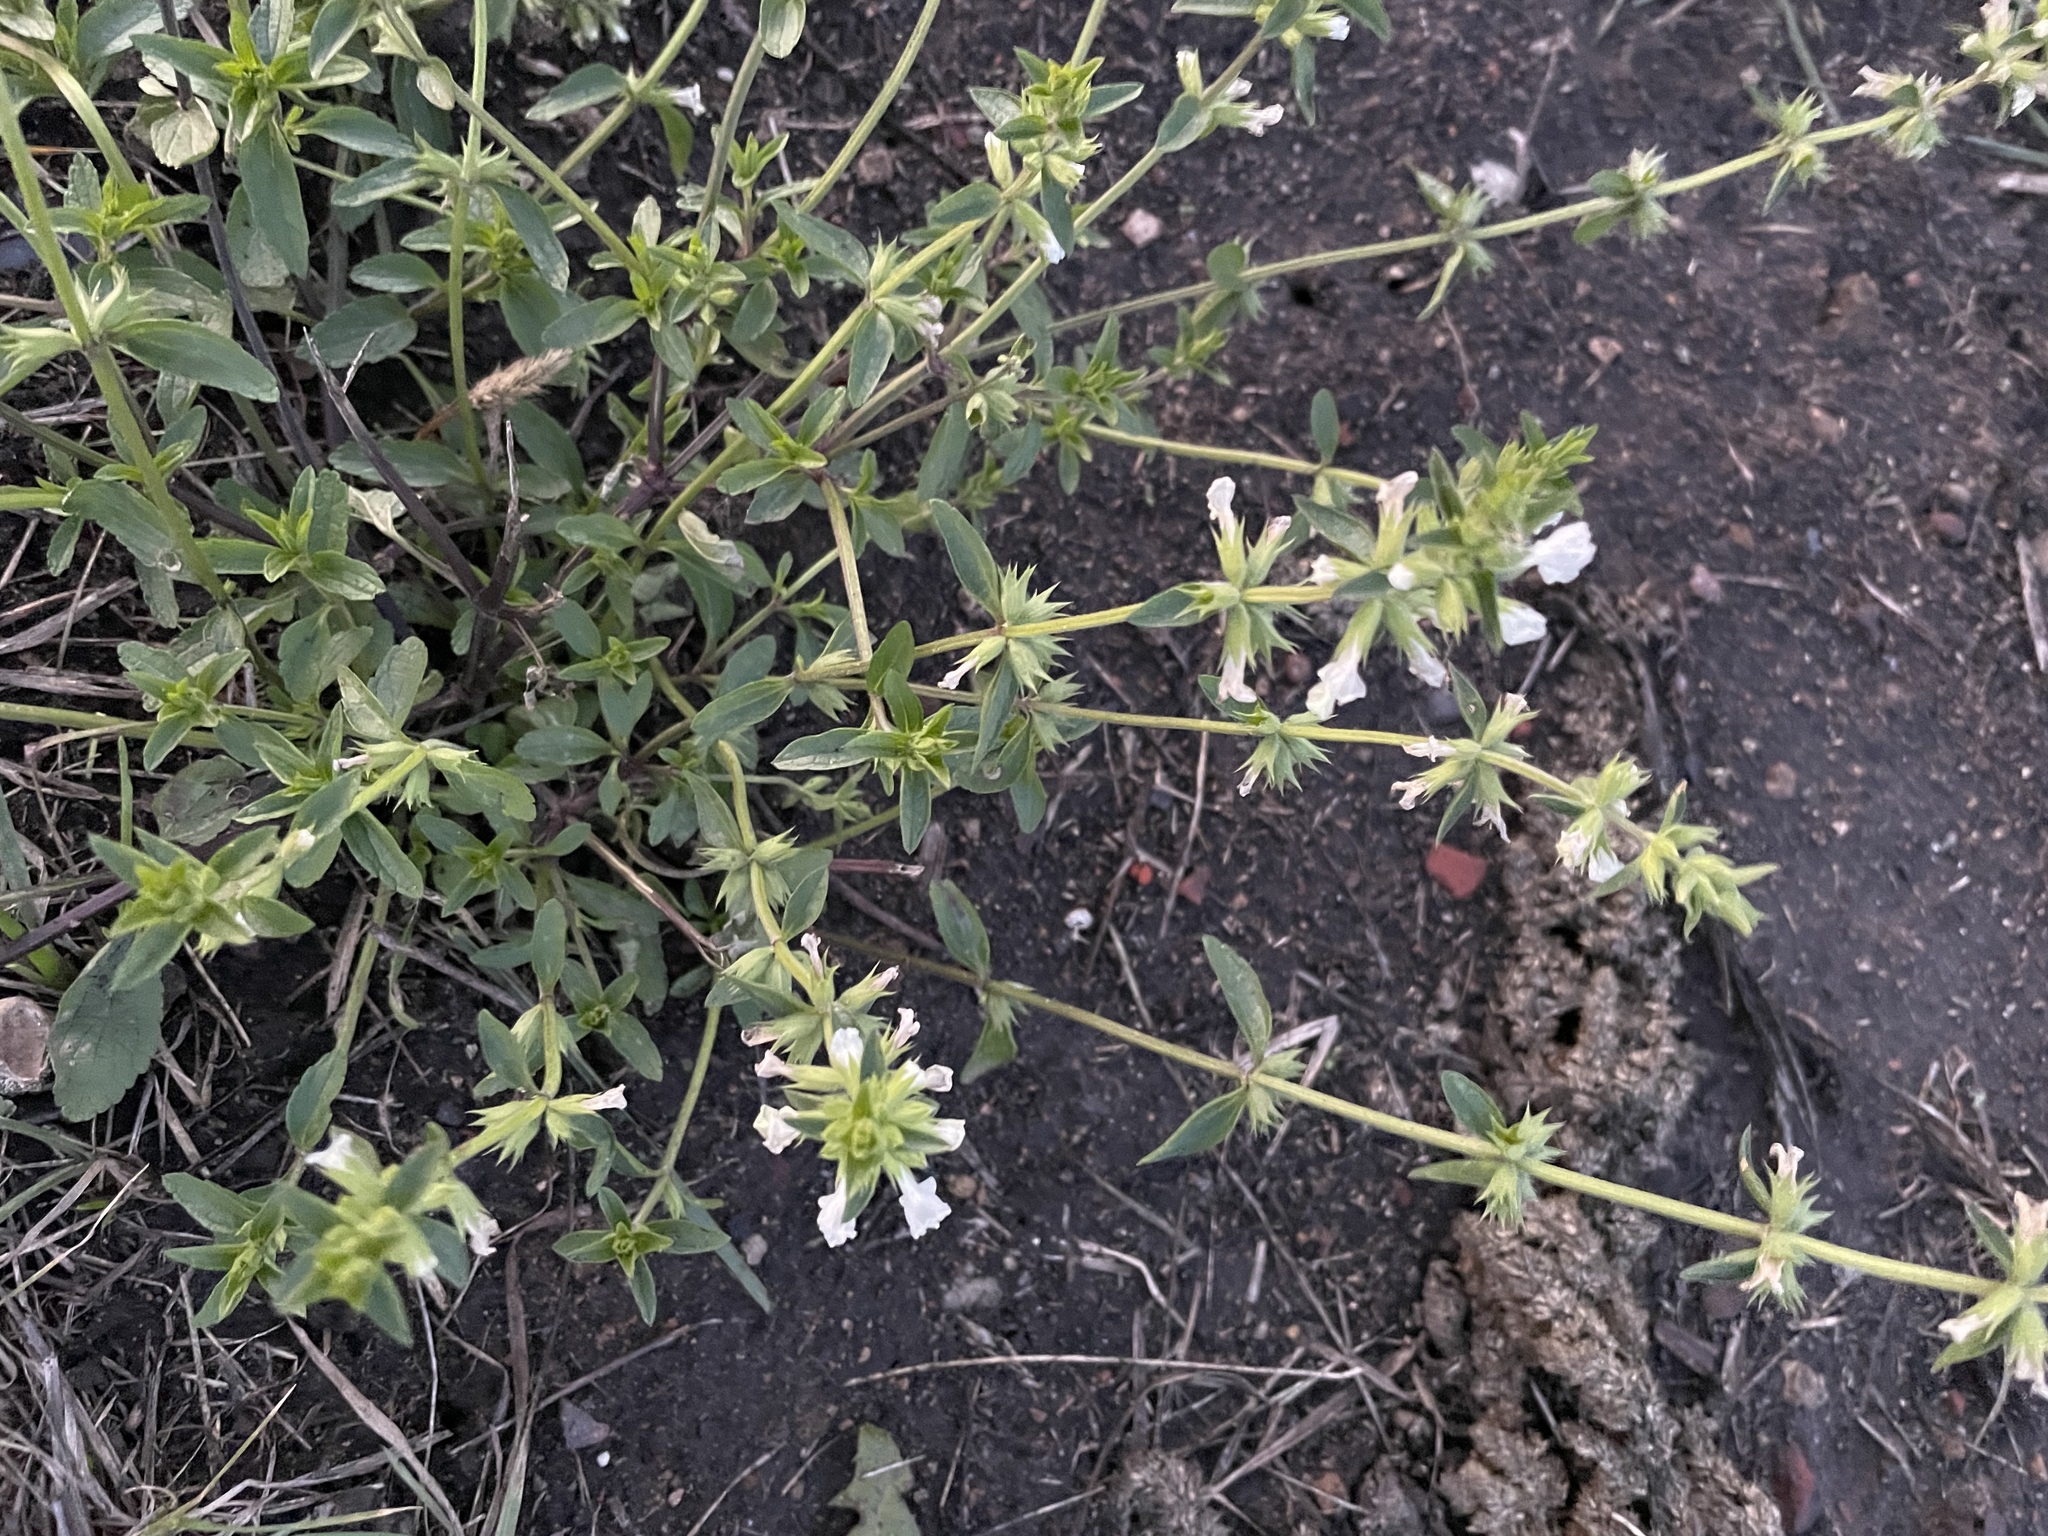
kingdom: Plantae
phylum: Tracheophyta
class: Magnoliopsida
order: Lamiales
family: Lamiaceae
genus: Stachys
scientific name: Stachys annua
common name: Annual yellow-woundwort
